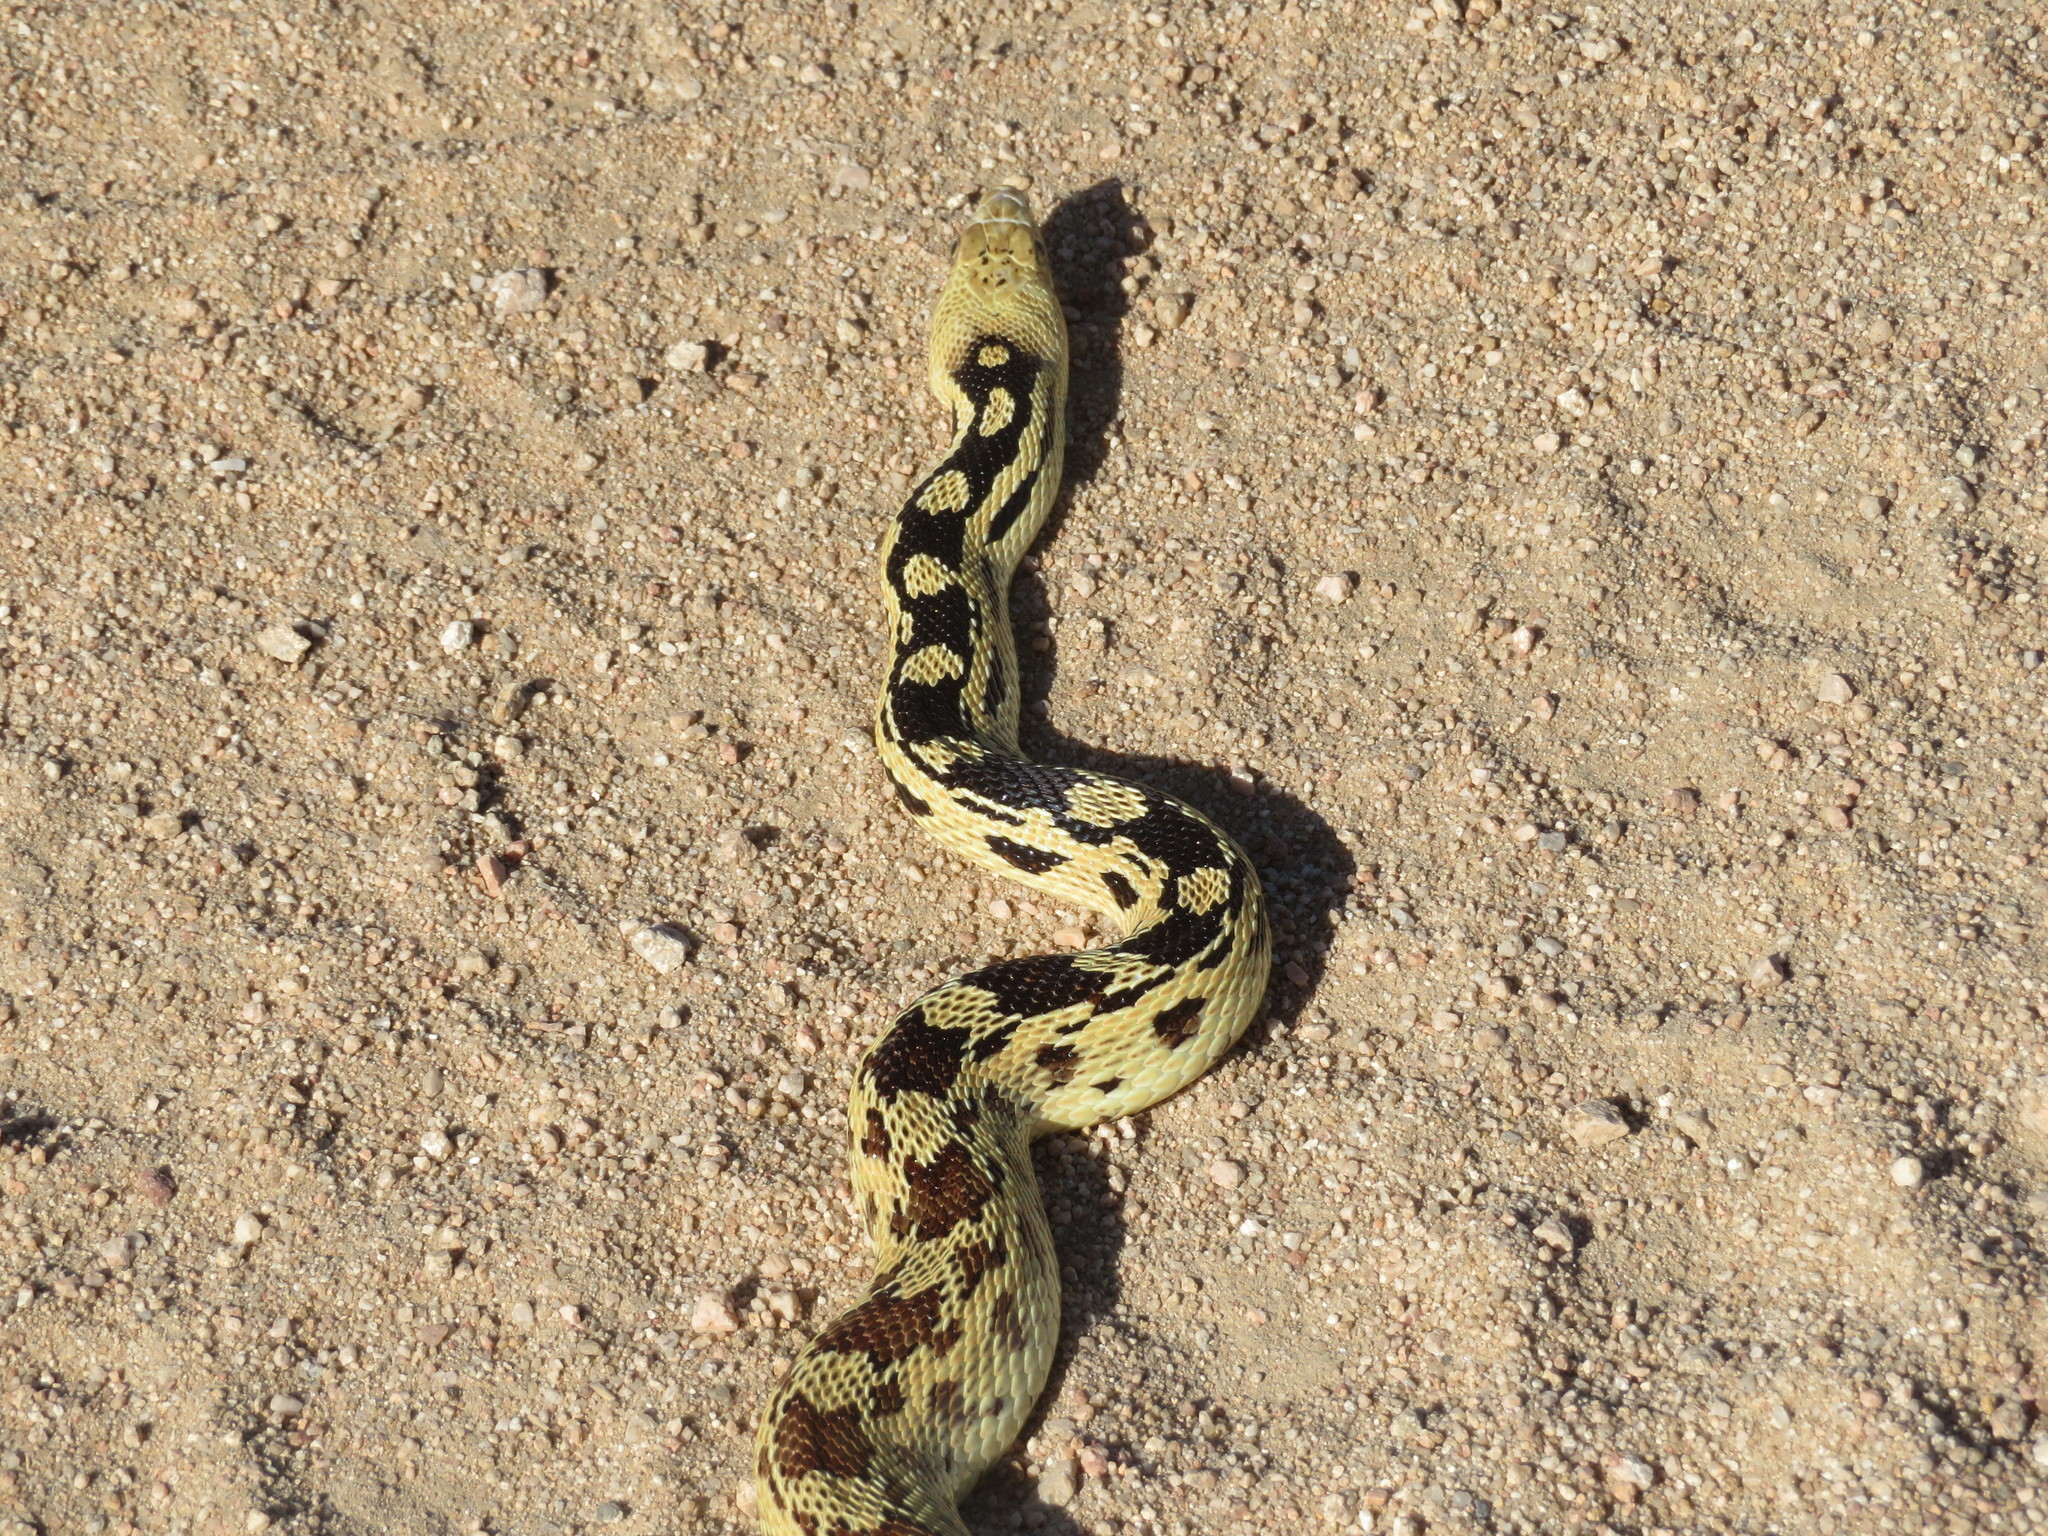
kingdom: Animalia
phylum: Chordata
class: Squamata
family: Colubridae
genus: Pituophis
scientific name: Pituophis catenifer
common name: Gopher snake
